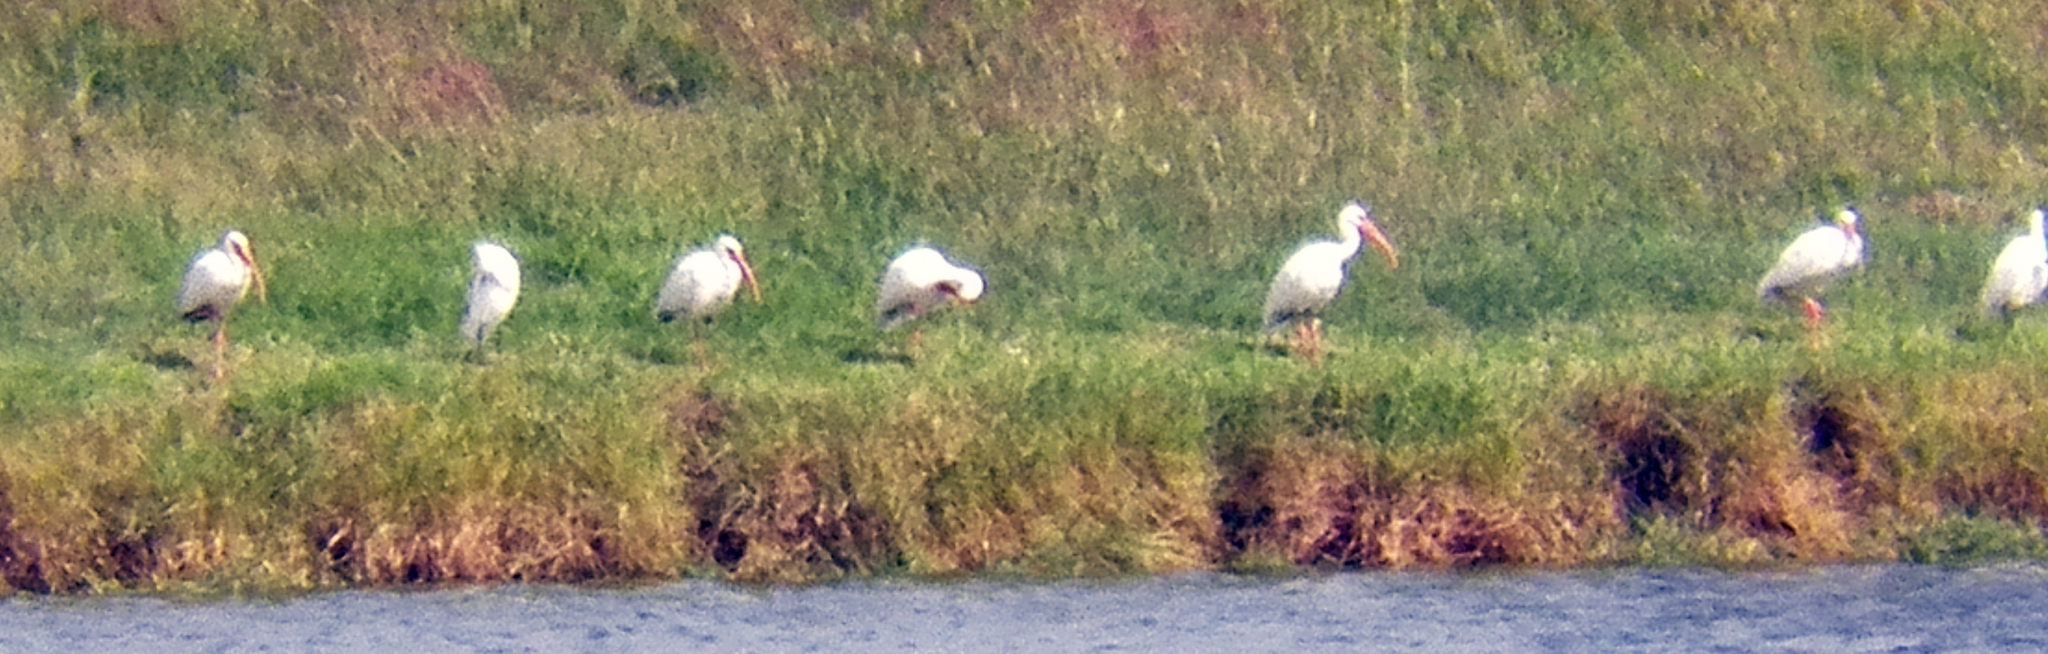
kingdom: Animalia
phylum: Chordata
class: Aves
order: Pelecaniformes
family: Threskiornithidae
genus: Eudocimus
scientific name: Eudocimus albus
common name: White ibis
